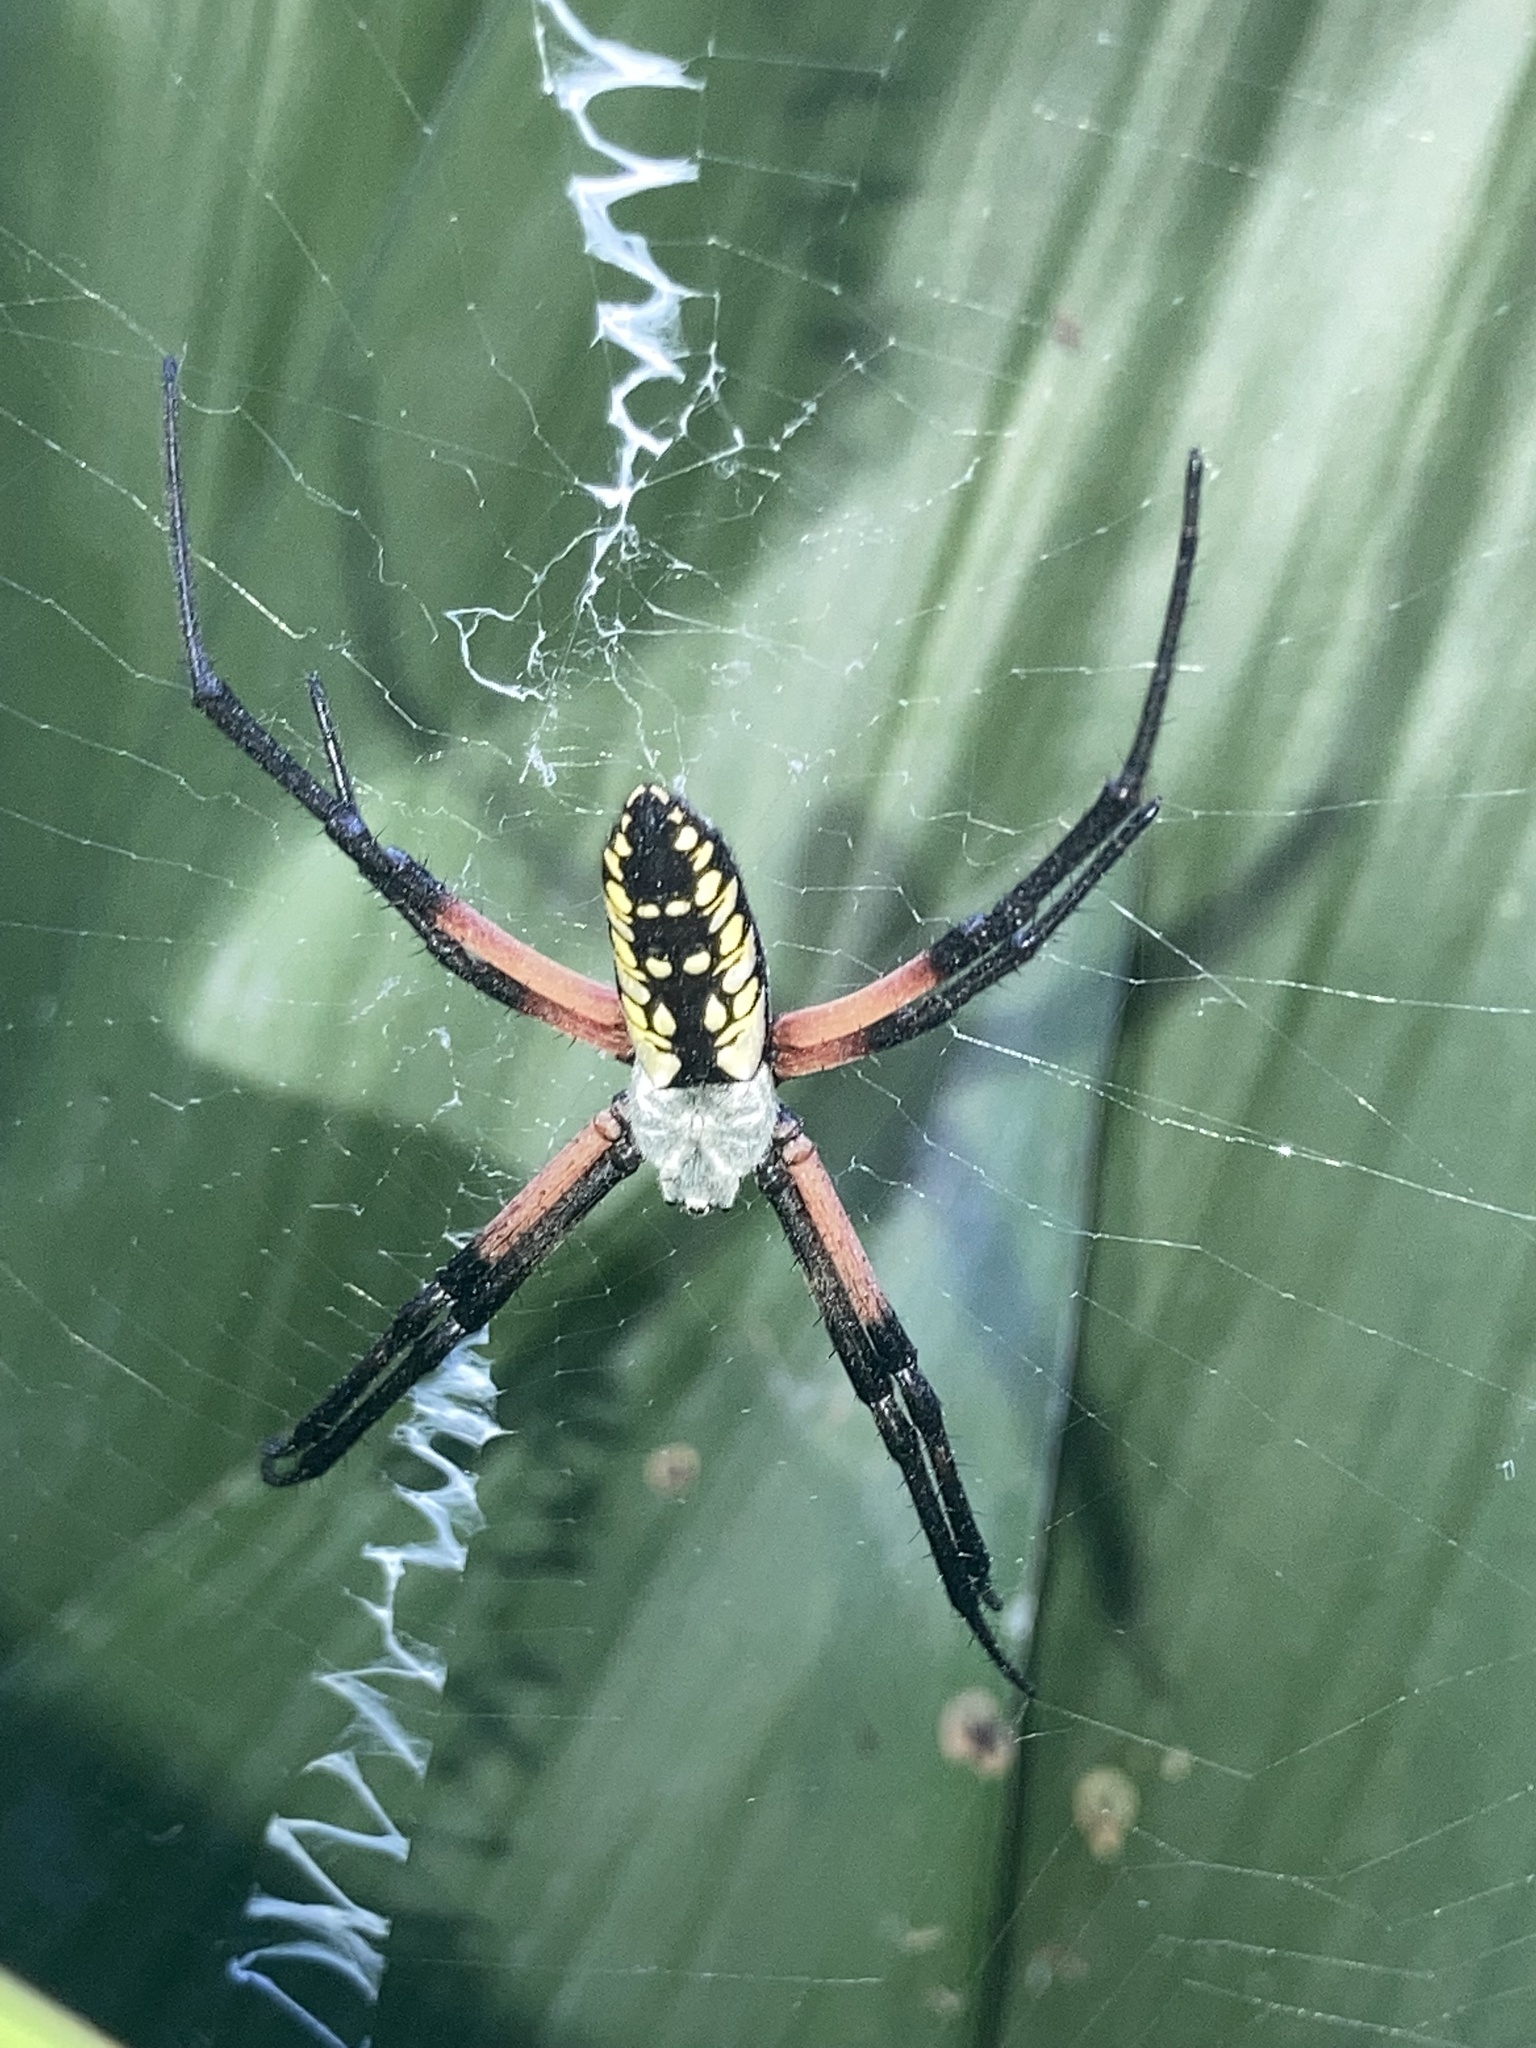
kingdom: Animalia
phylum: Arthropoda
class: Arachnida
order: Araneae
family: Araneidae
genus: Argiope
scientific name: Argiope aurantia
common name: Orb weavers
